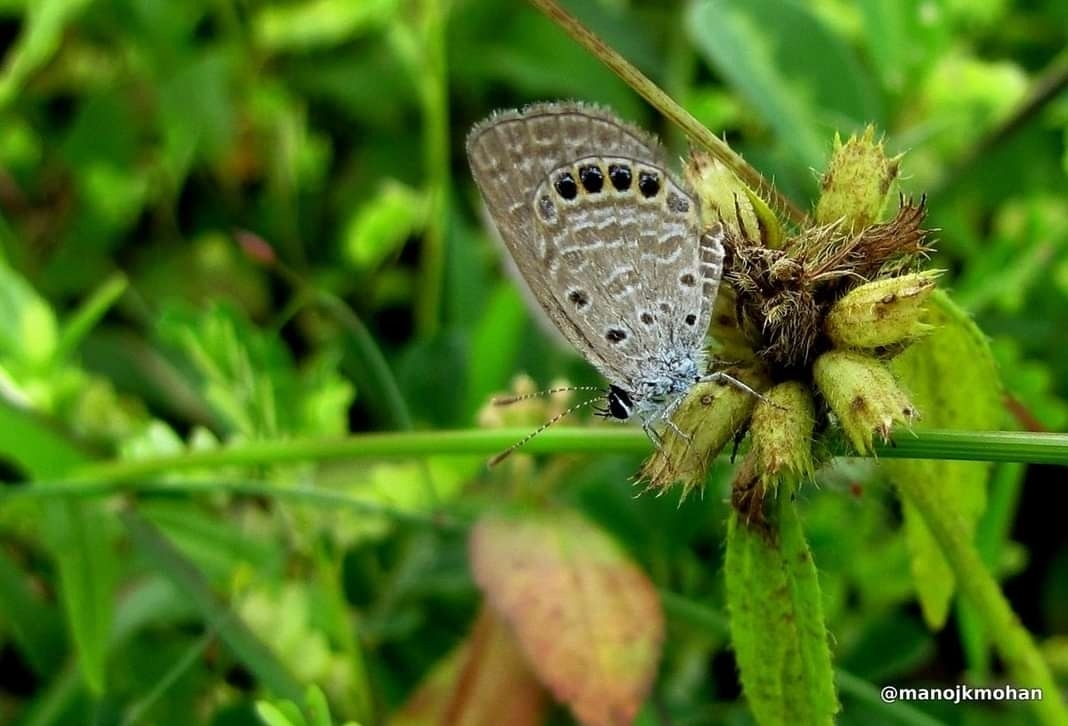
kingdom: Animalia
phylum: Arthropoda
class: Insecta
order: Lepidoptera
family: Lycaenidae
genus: Freyeria
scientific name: Freyeria putli
